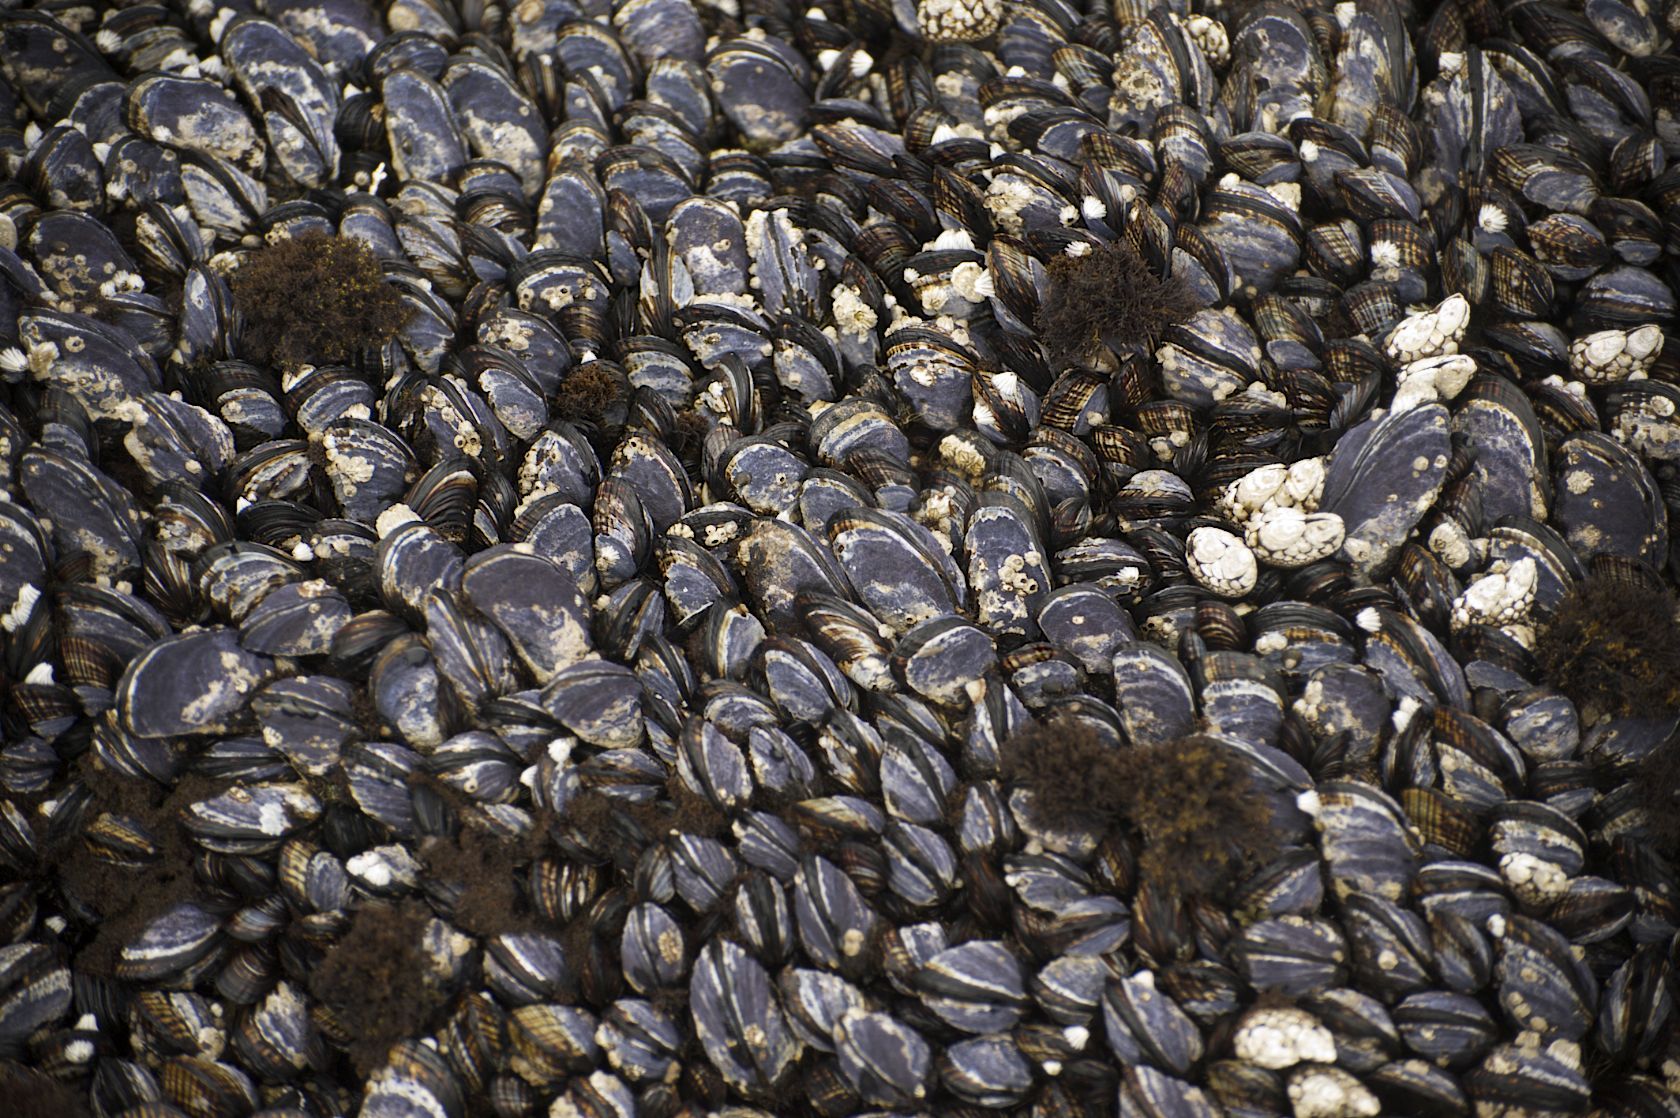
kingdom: Animalia
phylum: Mollusca
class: Bivalvia
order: Mytilida
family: Mytilidae
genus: Mytilus
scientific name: Mytilus californianus
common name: California mussel
